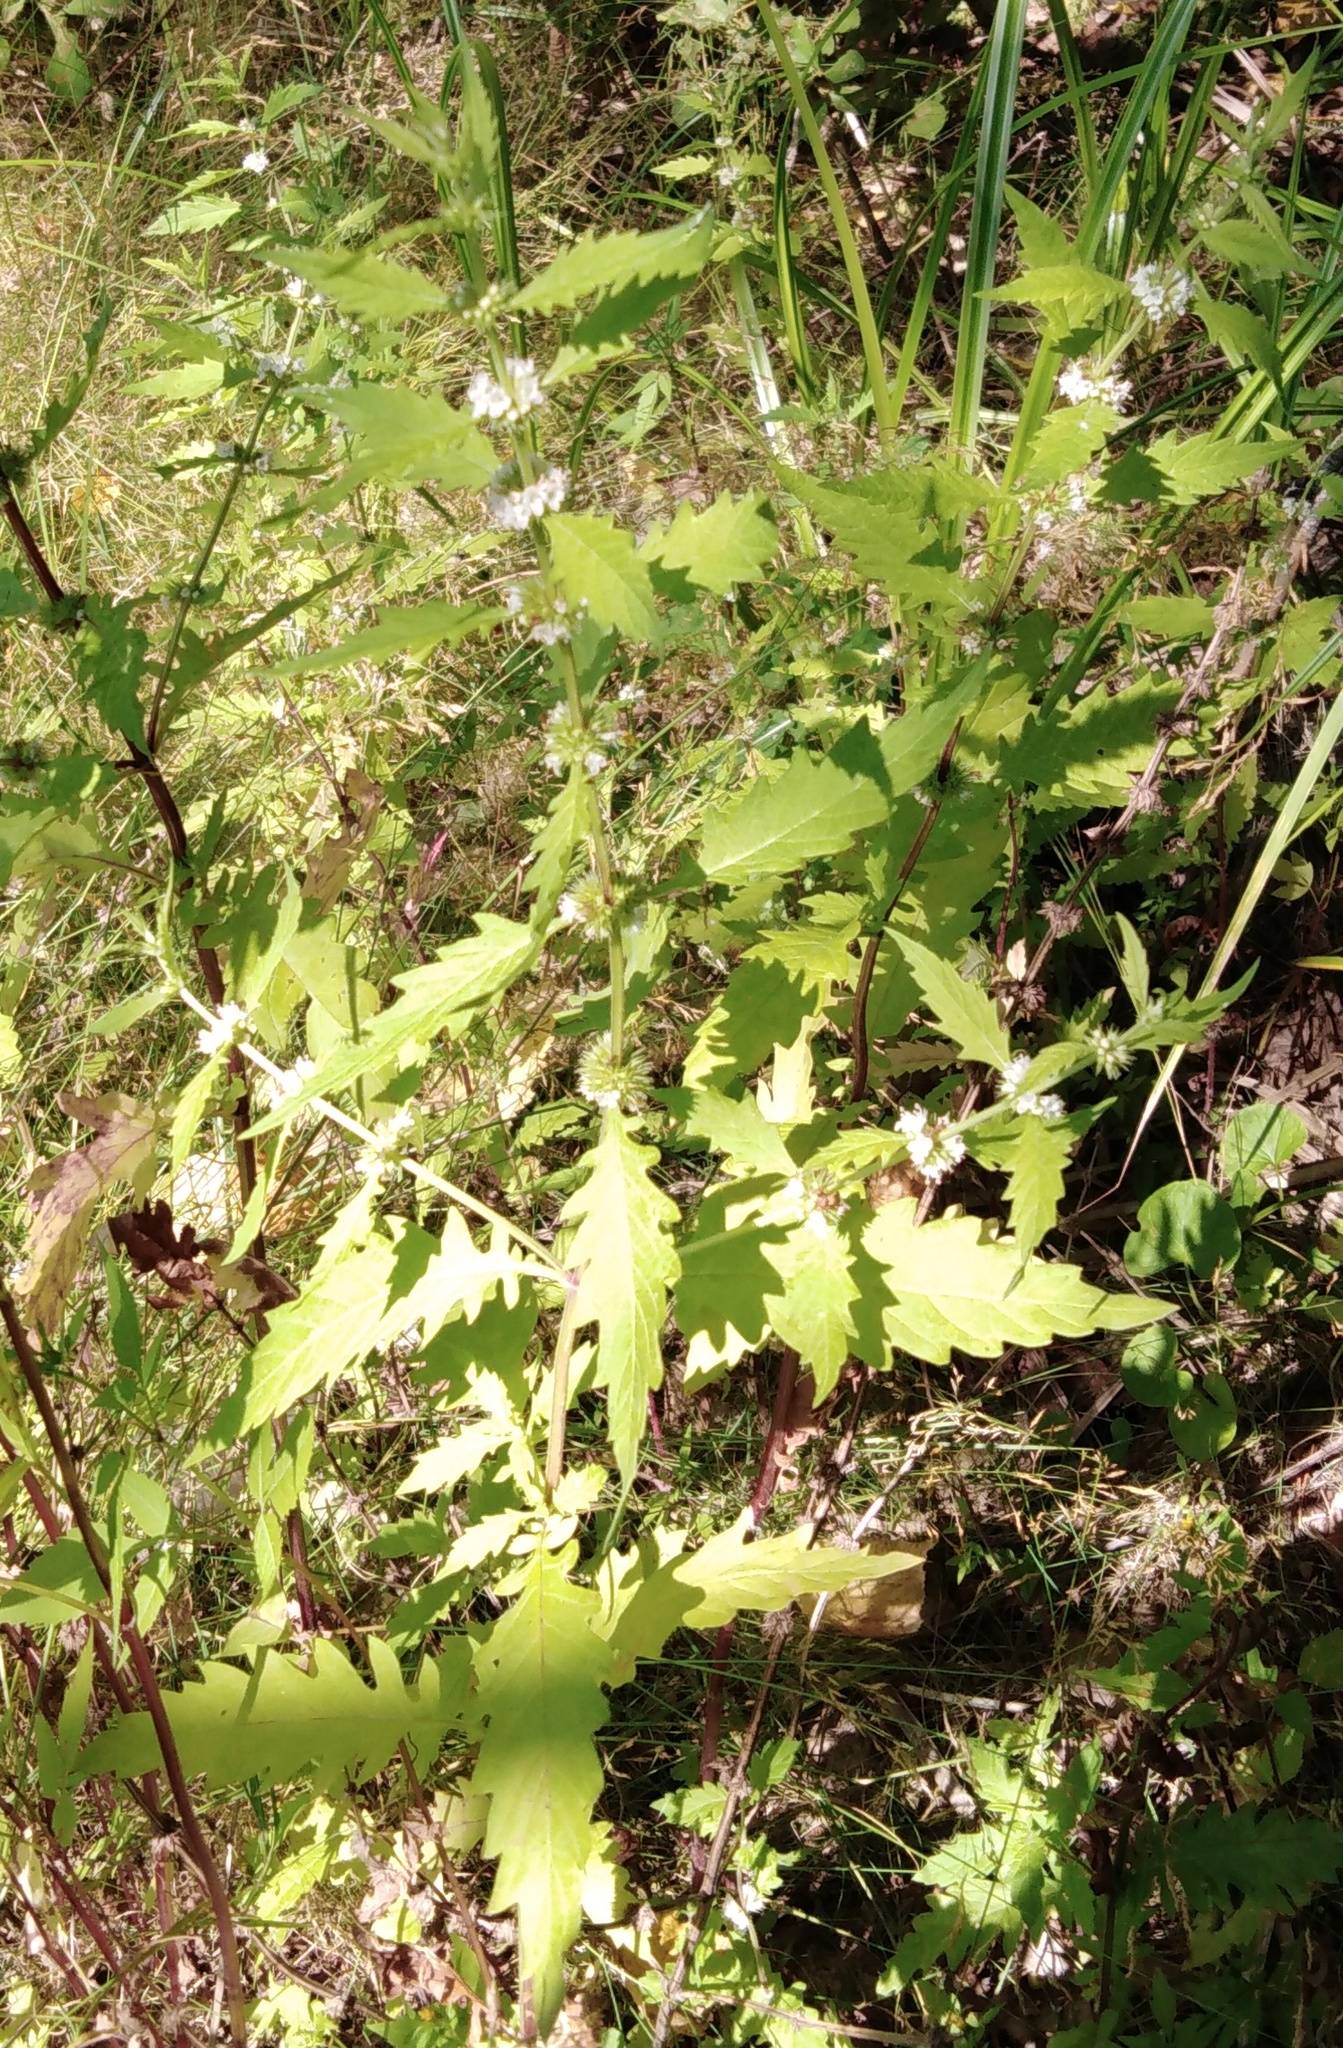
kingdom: Plantae
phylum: Tracheophyta
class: Magnoliopsida
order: Lamiales
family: Lamiaceae
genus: Lycopus
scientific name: Lycopus europaeus
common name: European bugleweed
